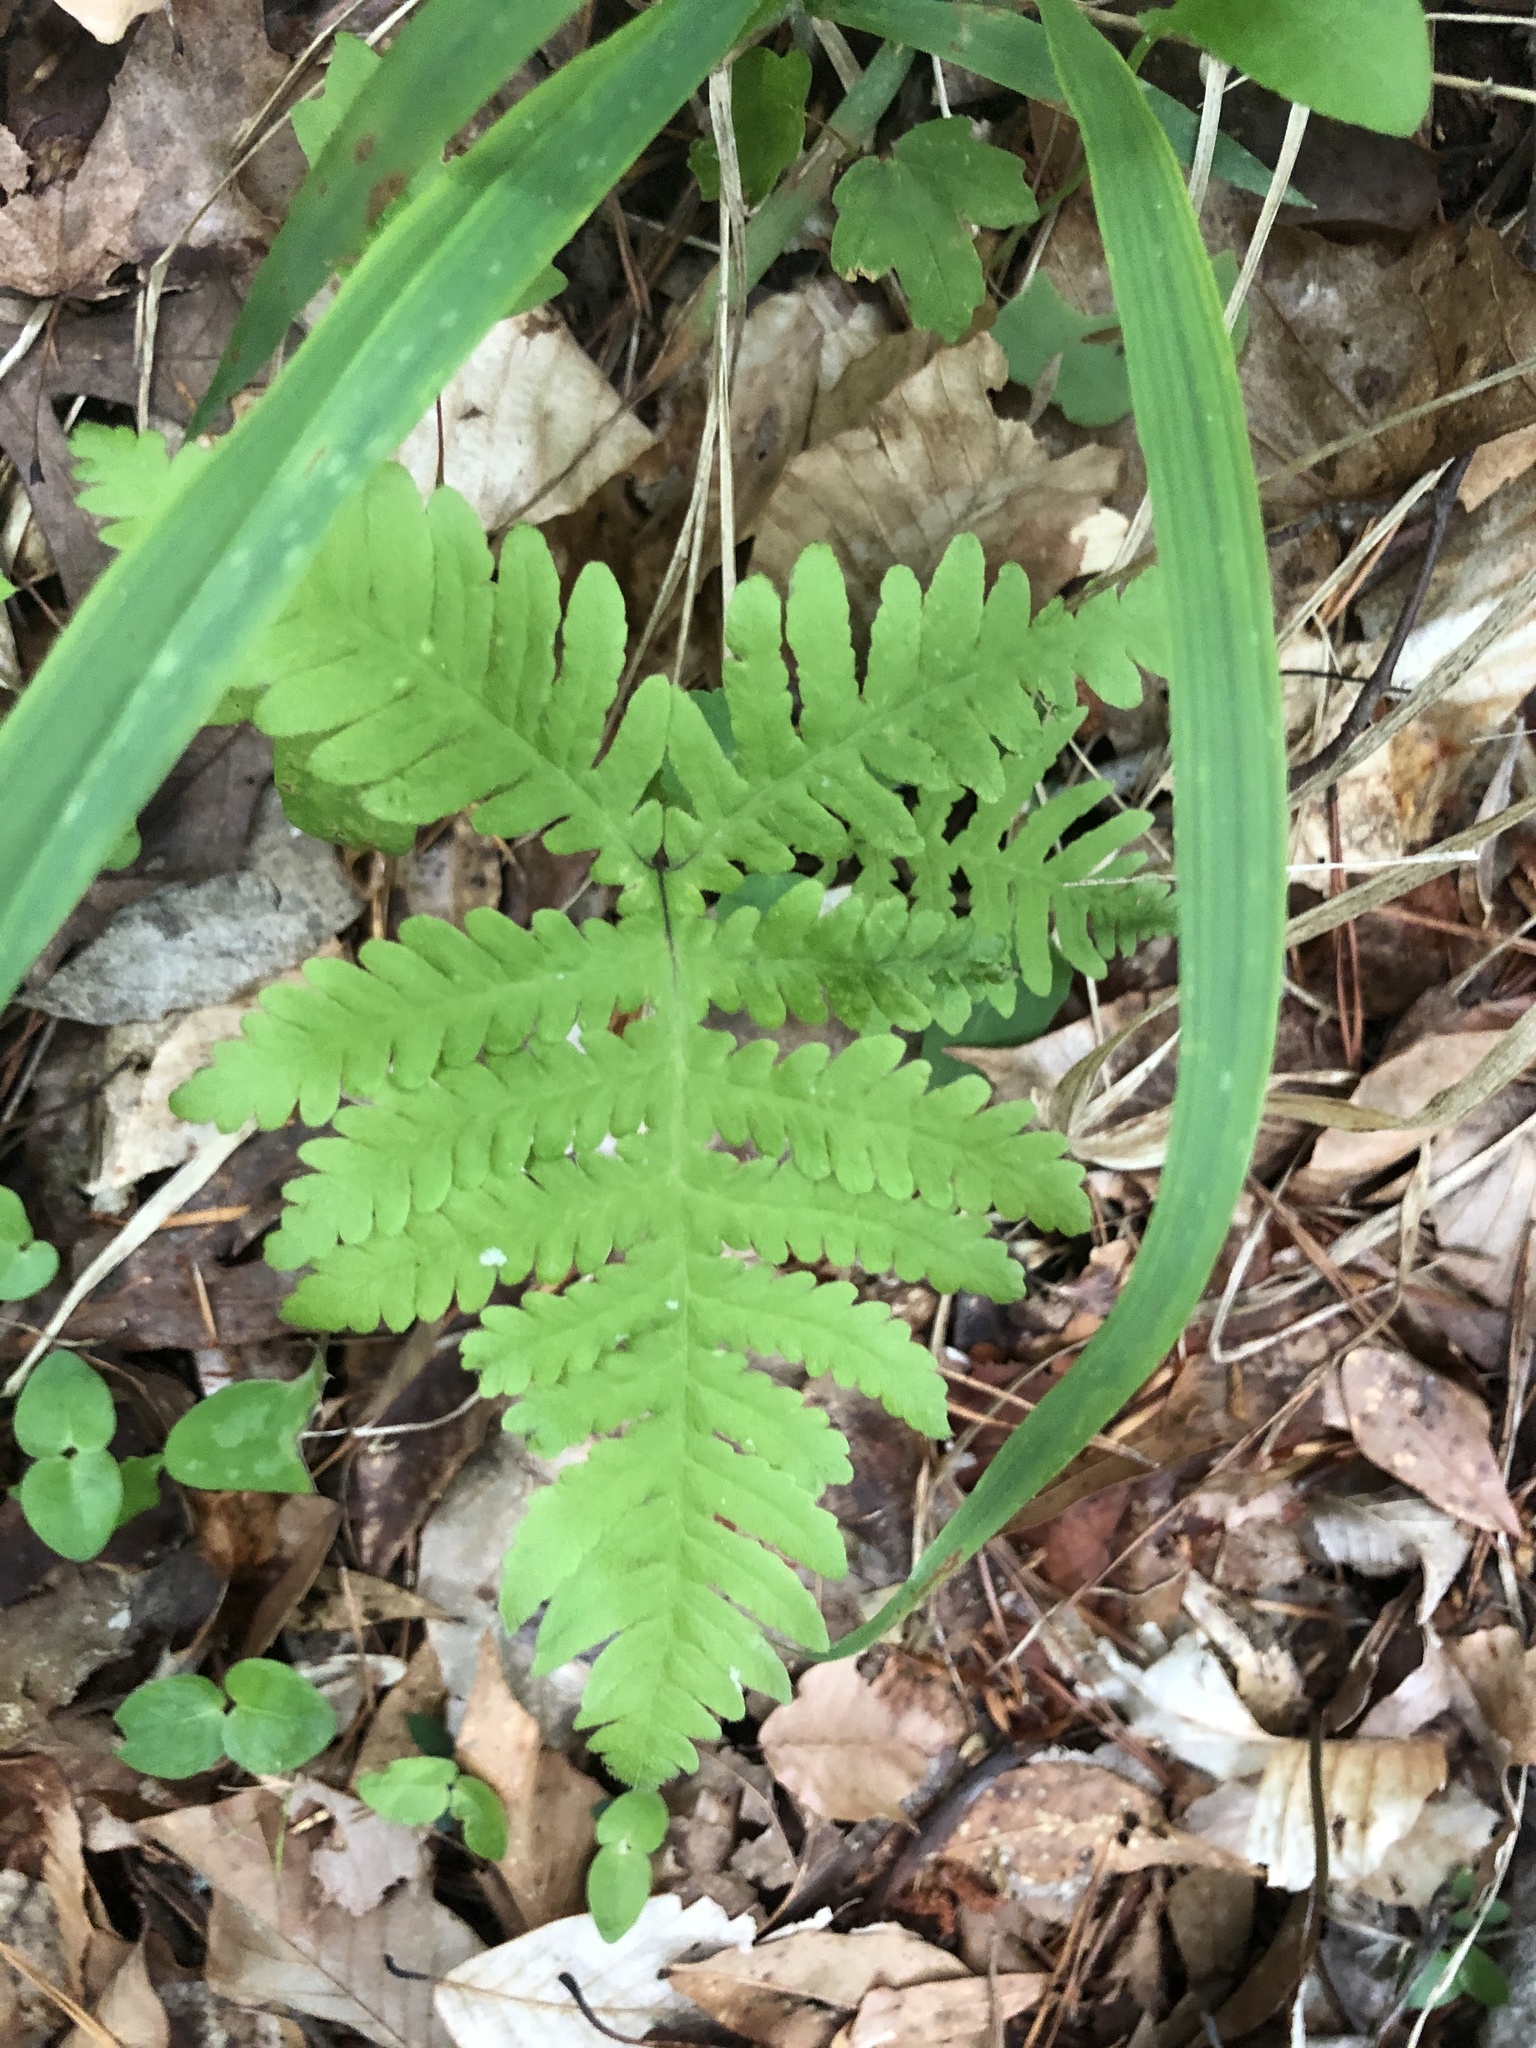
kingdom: Plantae
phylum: Tracheophyta
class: Polypodiopsida
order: Polypodiales
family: Thelypteridaceae
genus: Phegopteris
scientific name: Phegopteris hexagonoptera
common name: Broad beech fern
